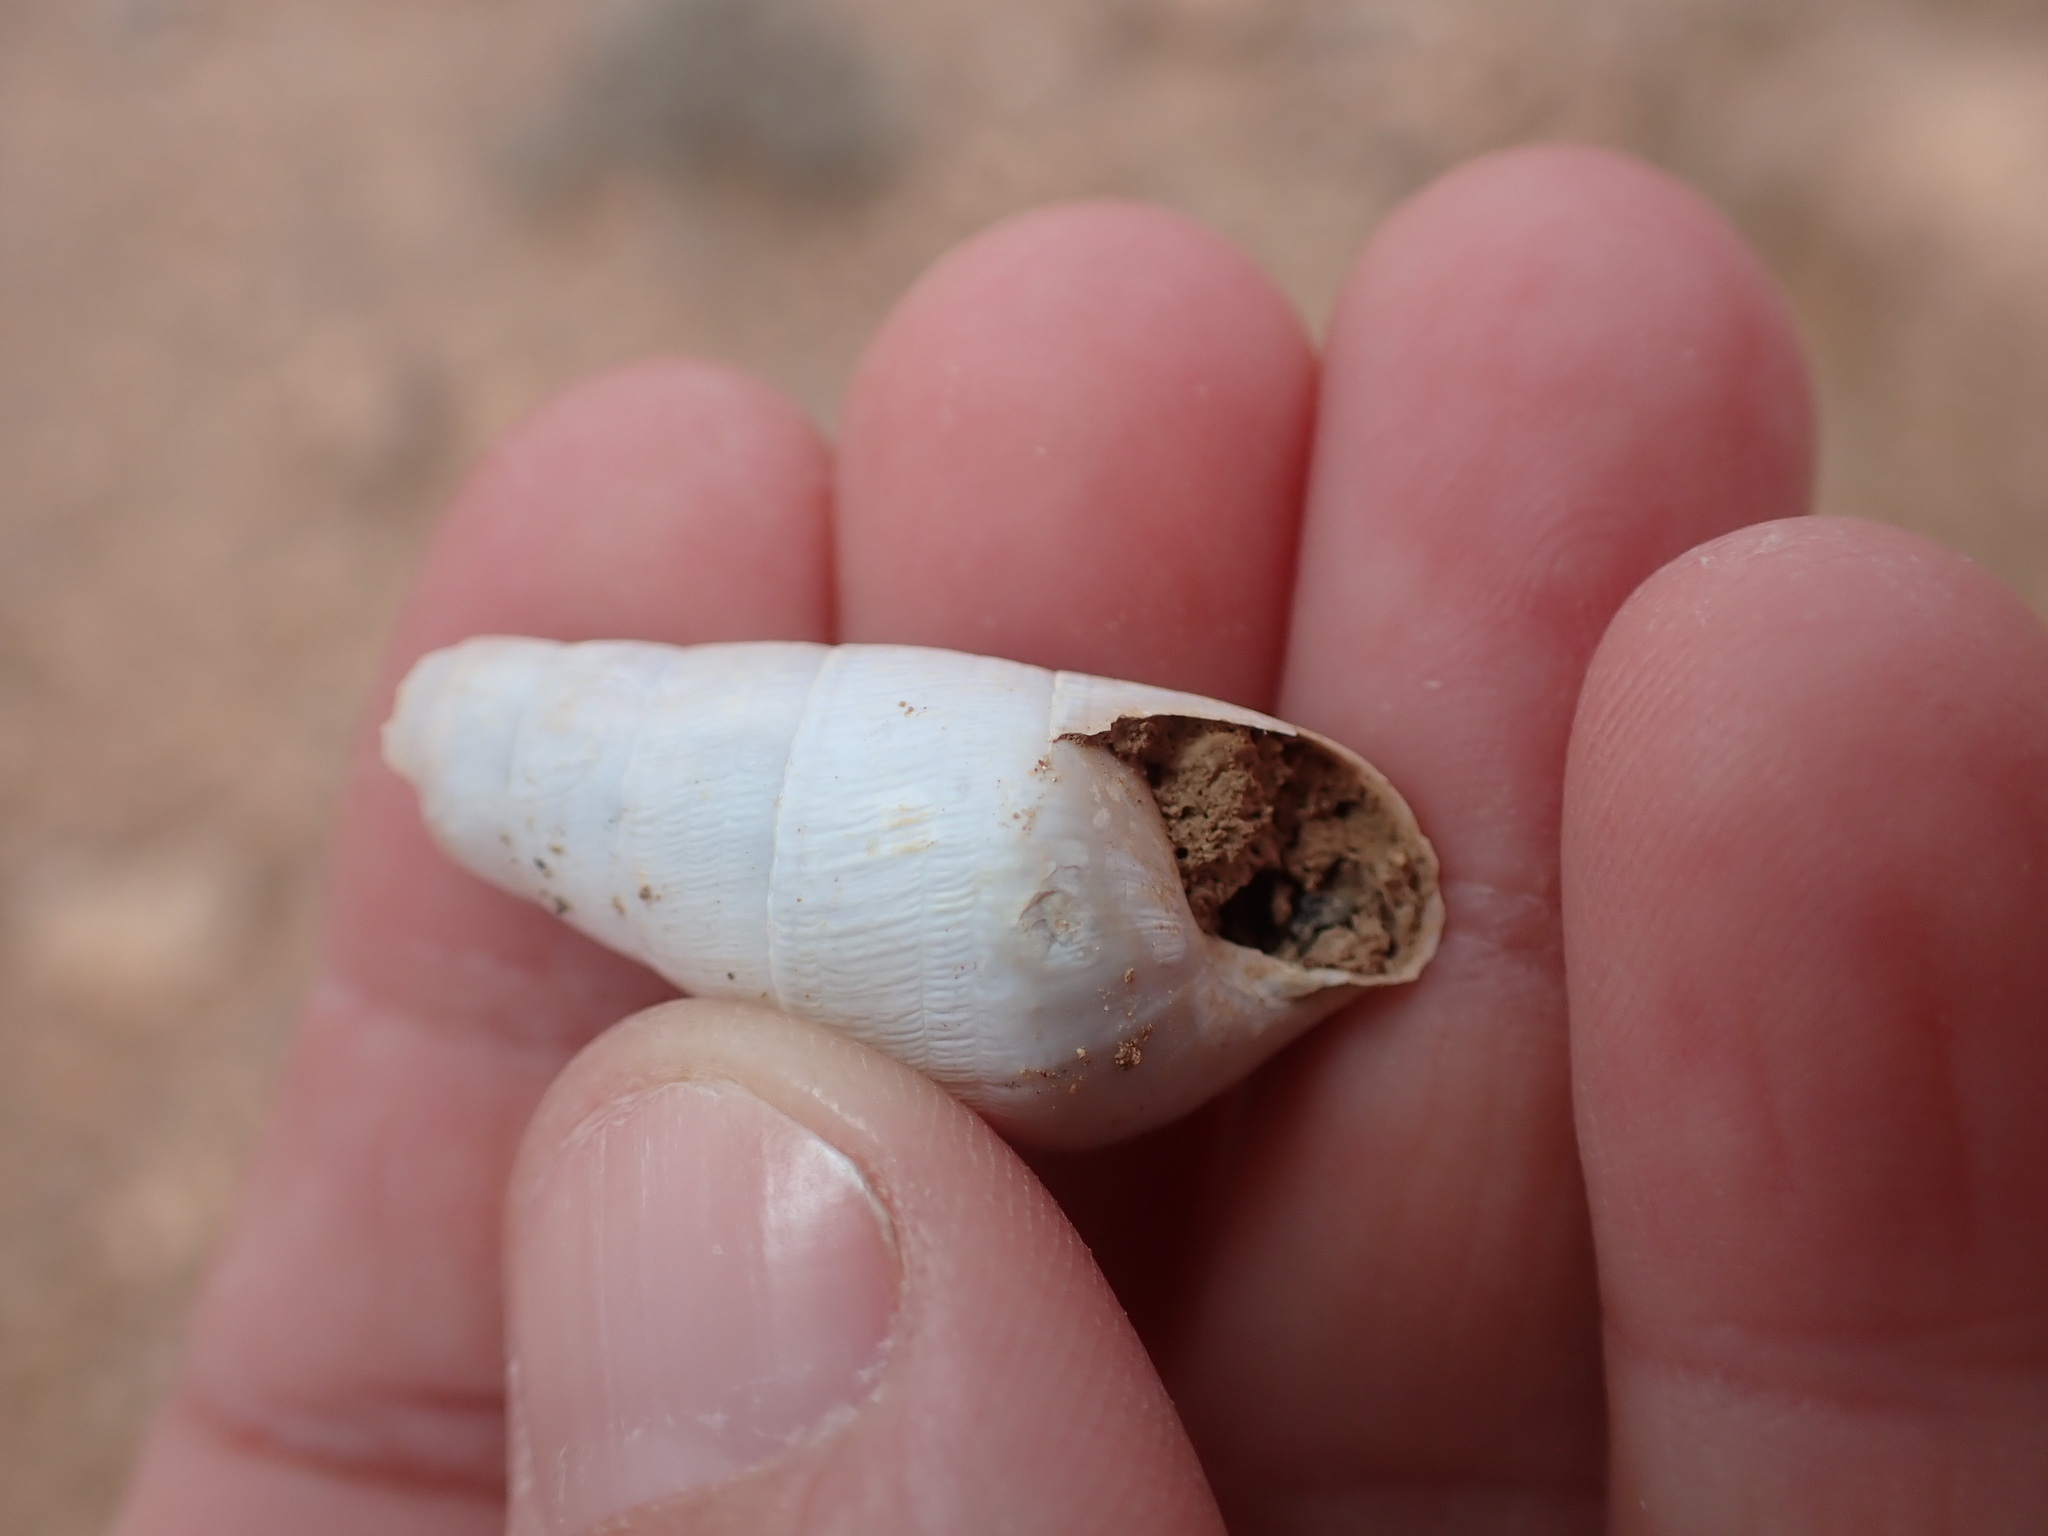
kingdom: Animalia
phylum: Mollusca
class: Gastropoda
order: Stylommatophora
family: Achatinidae
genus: Rumina
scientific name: Rumina decollata
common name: Decollate snail
